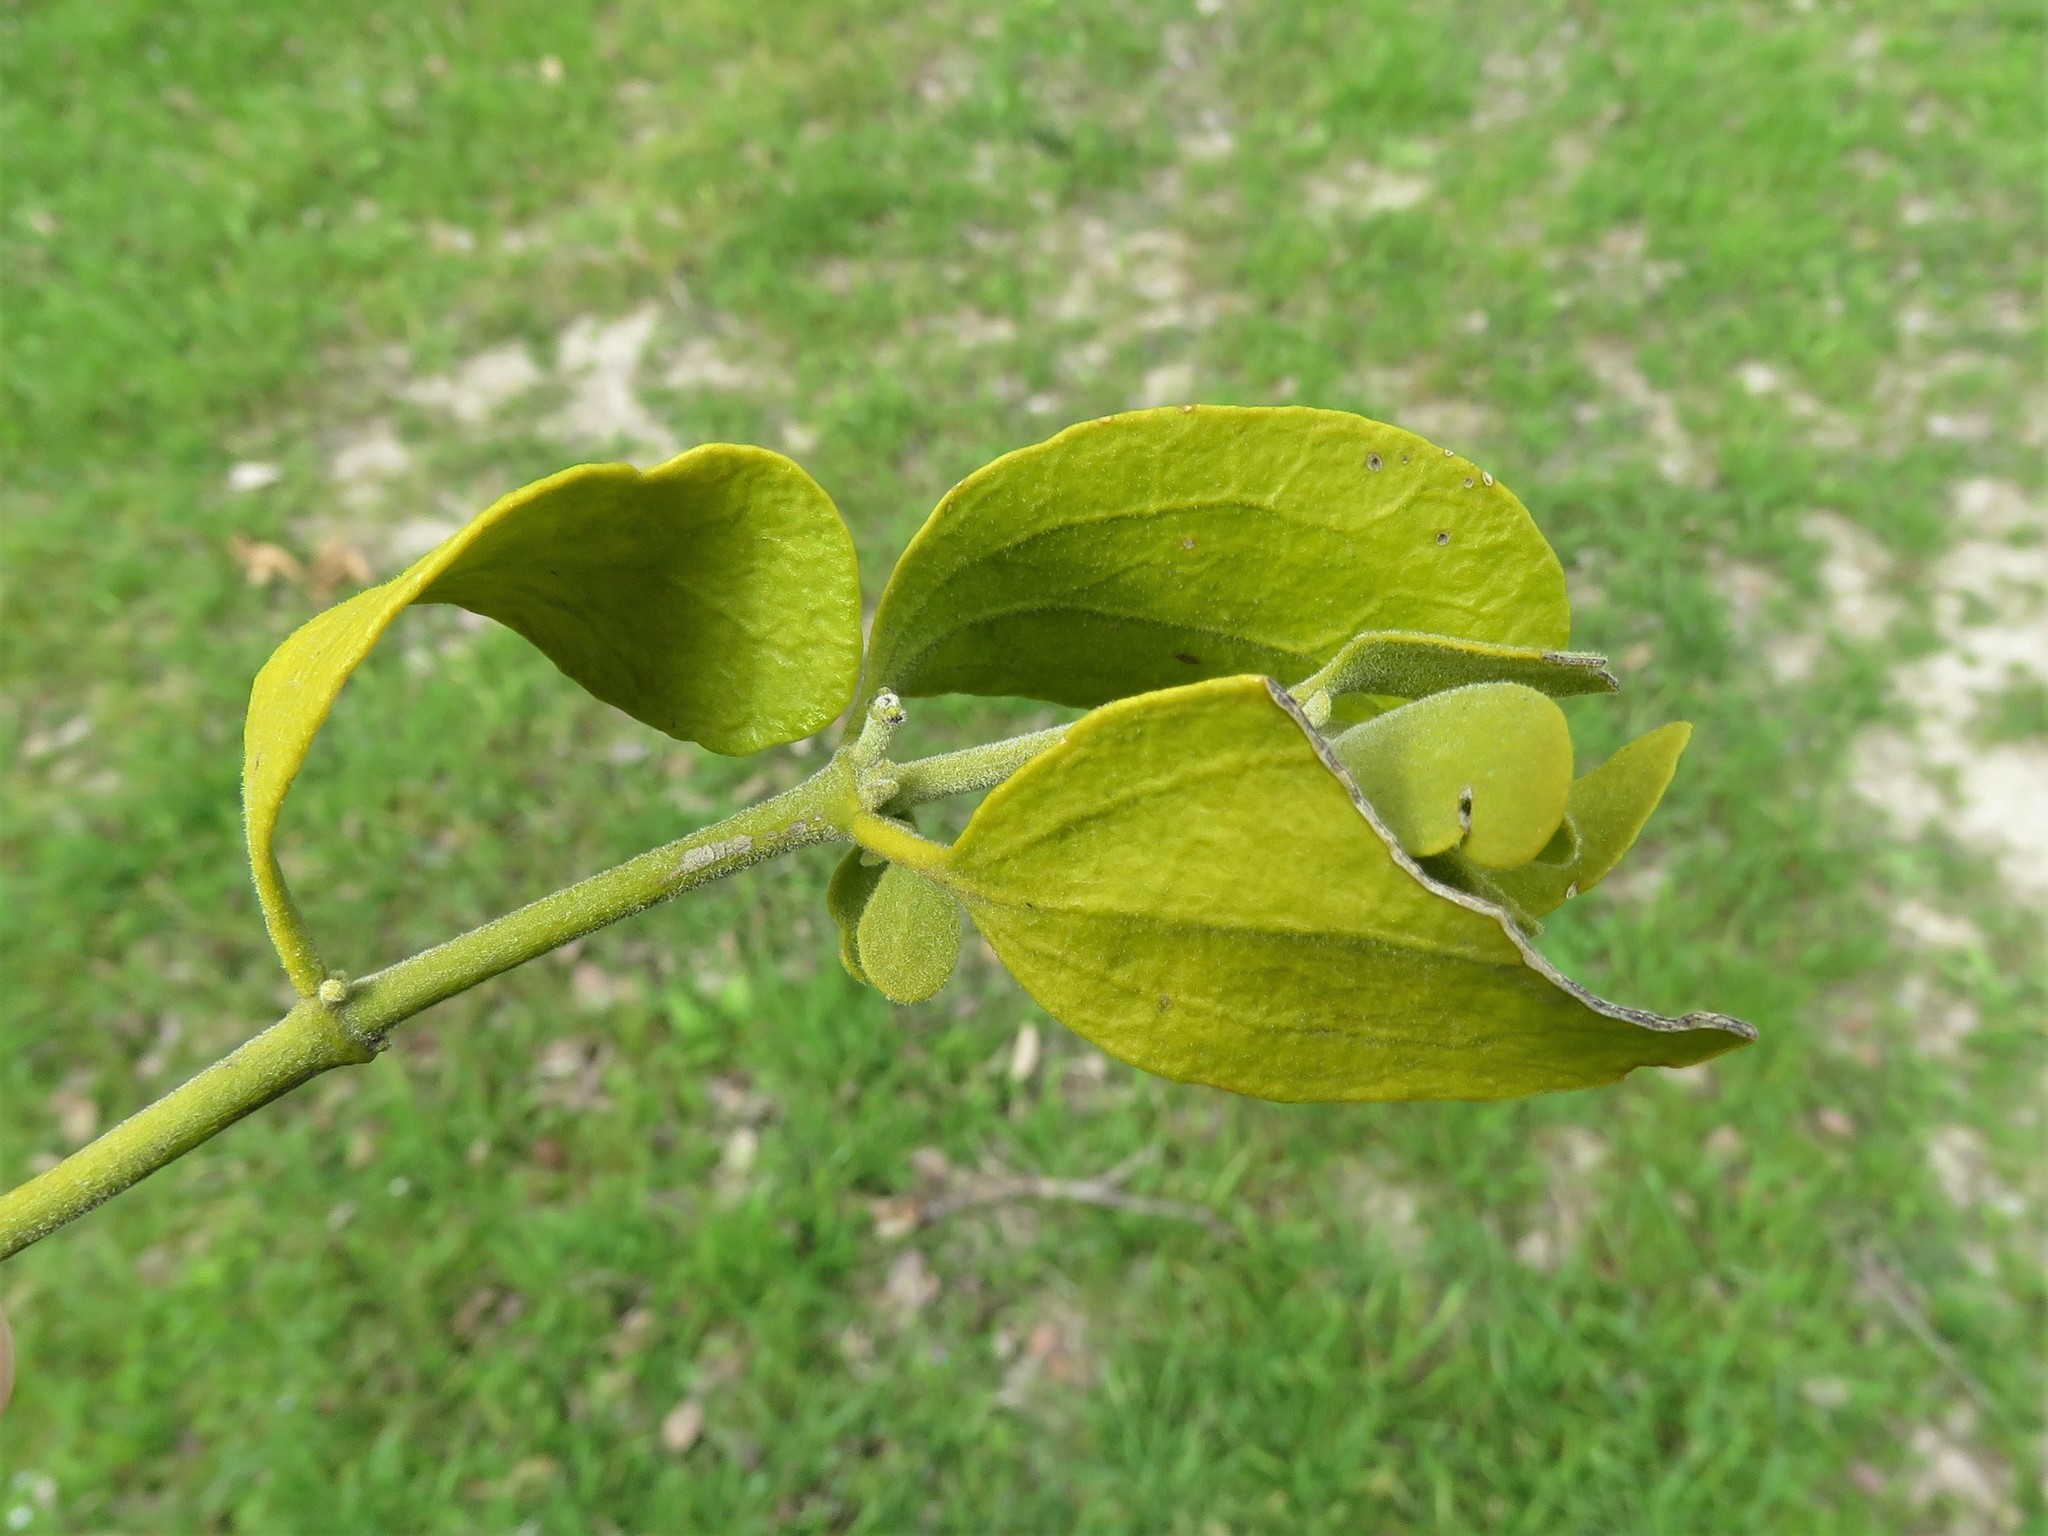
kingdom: Plantae
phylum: Tracheophyta
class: Magnoliopsida
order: Santalales
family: Viscaceae
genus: Phoradendron
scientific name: Phoradendron leucarpum
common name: Pacific mistletoe
